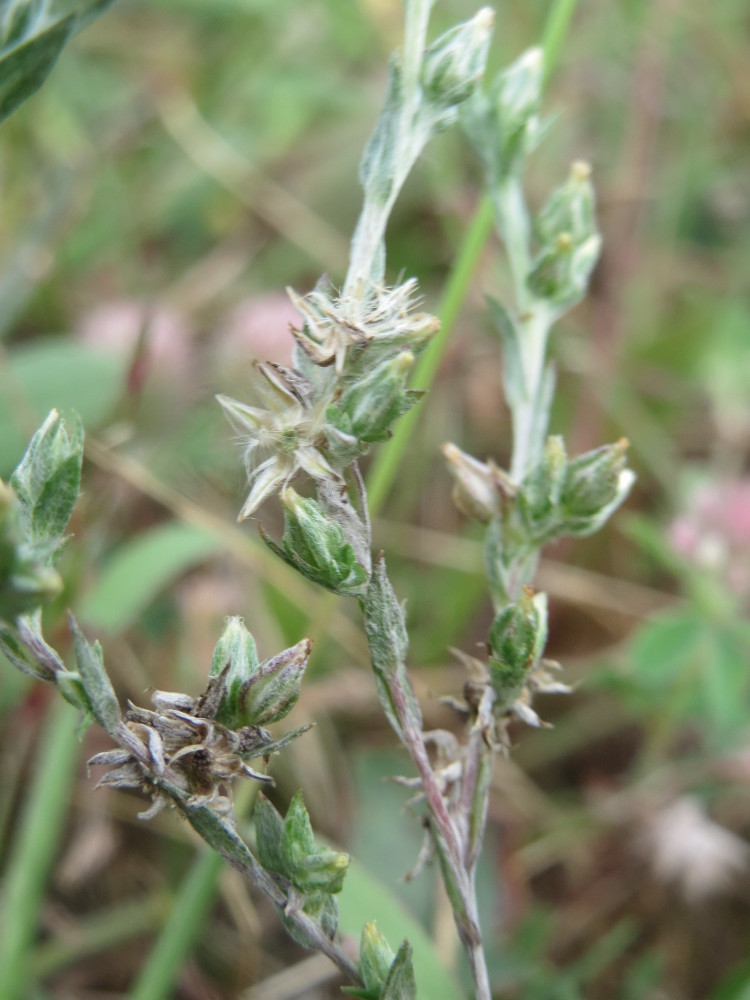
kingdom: Plantae
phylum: Tracheophyta
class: Magnoliopsida
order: Asterales
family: Asteraceae
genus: Filago
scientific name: Filago arvensis
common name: Field cudweed
